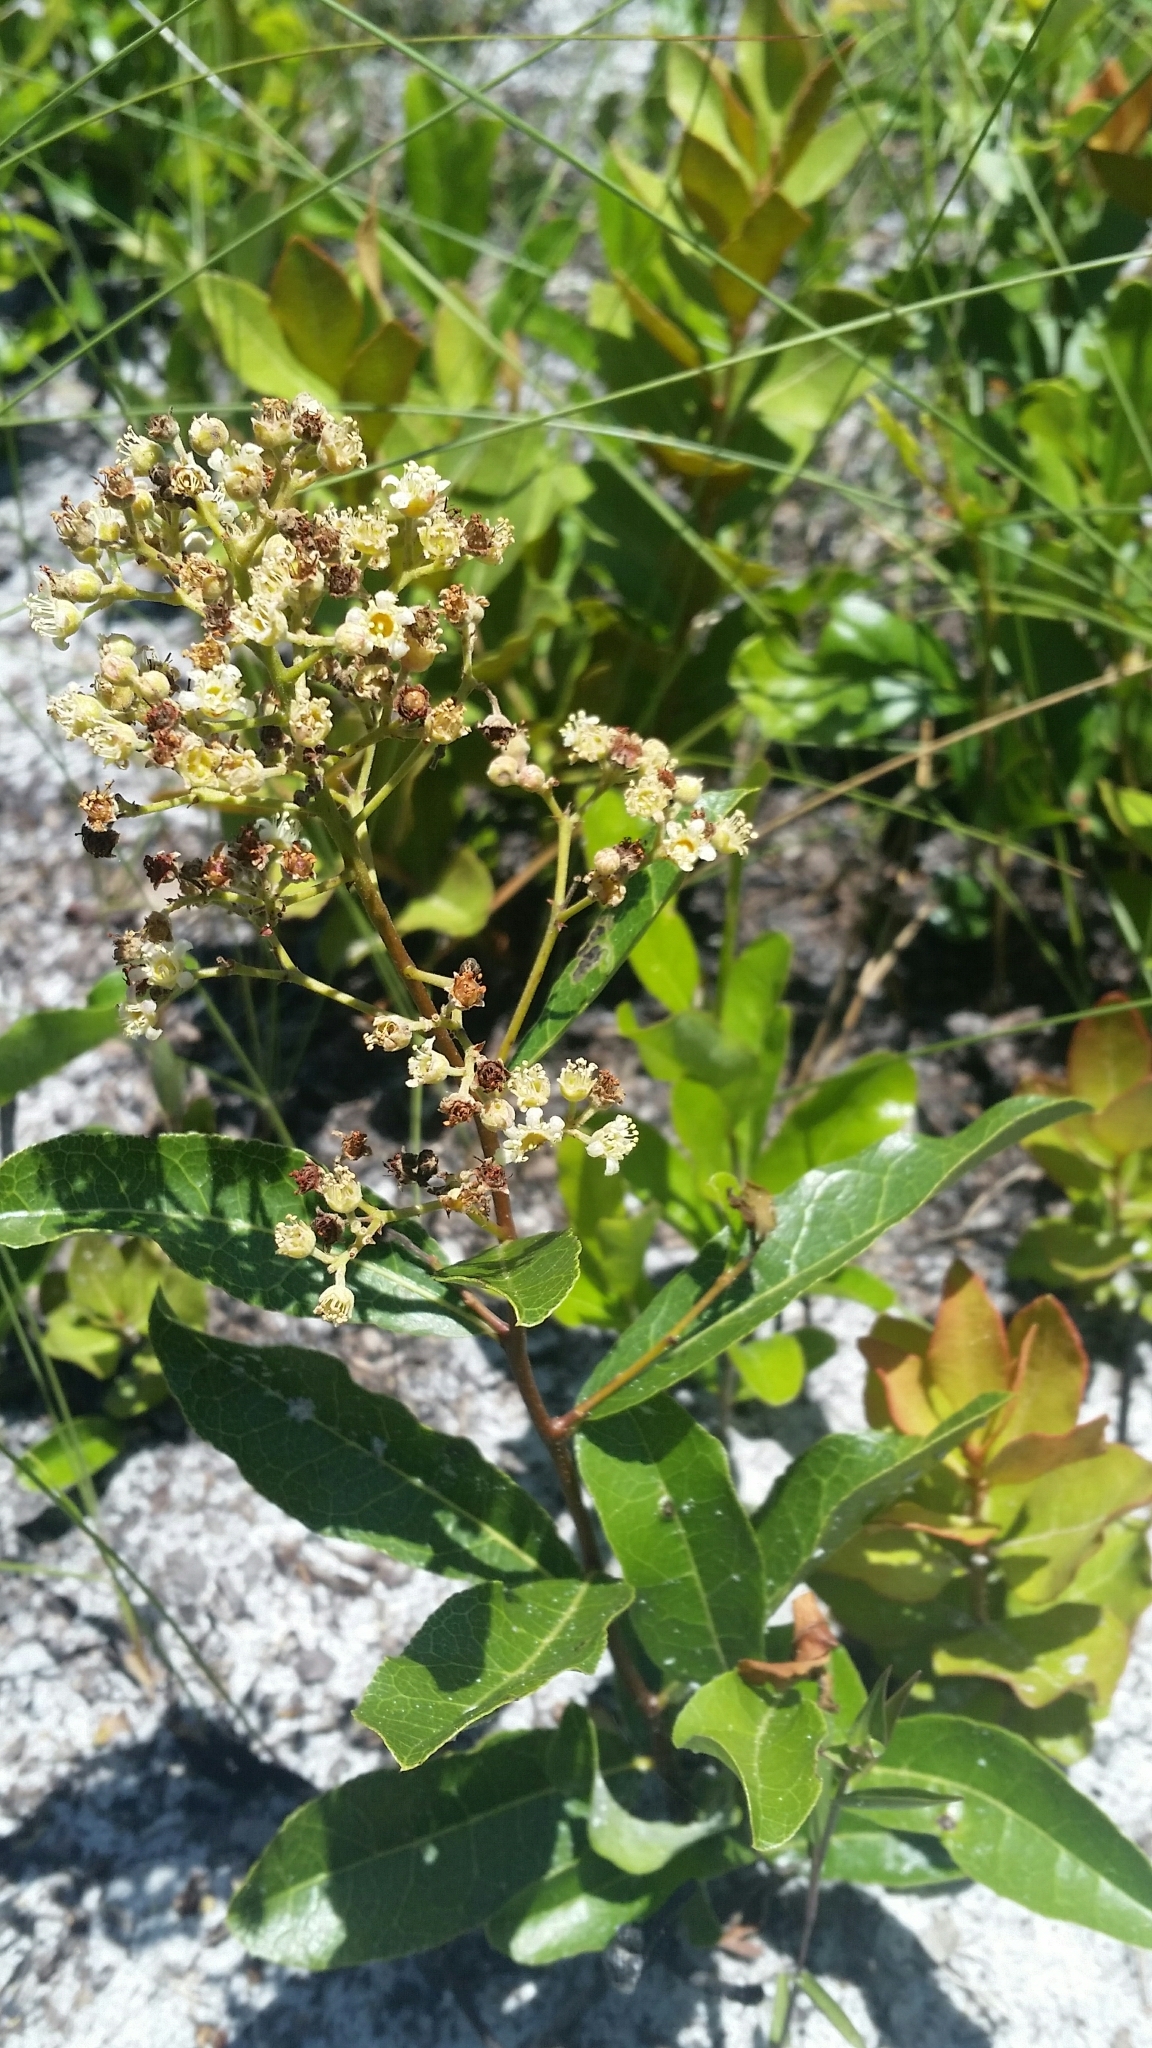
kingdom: Plantae
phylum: Tracheophyta
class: Magnoliopsida
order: Malpighiales
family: Chrysobalanaceae
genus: Geobalanus
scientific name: Geobalanus oblongifolius
